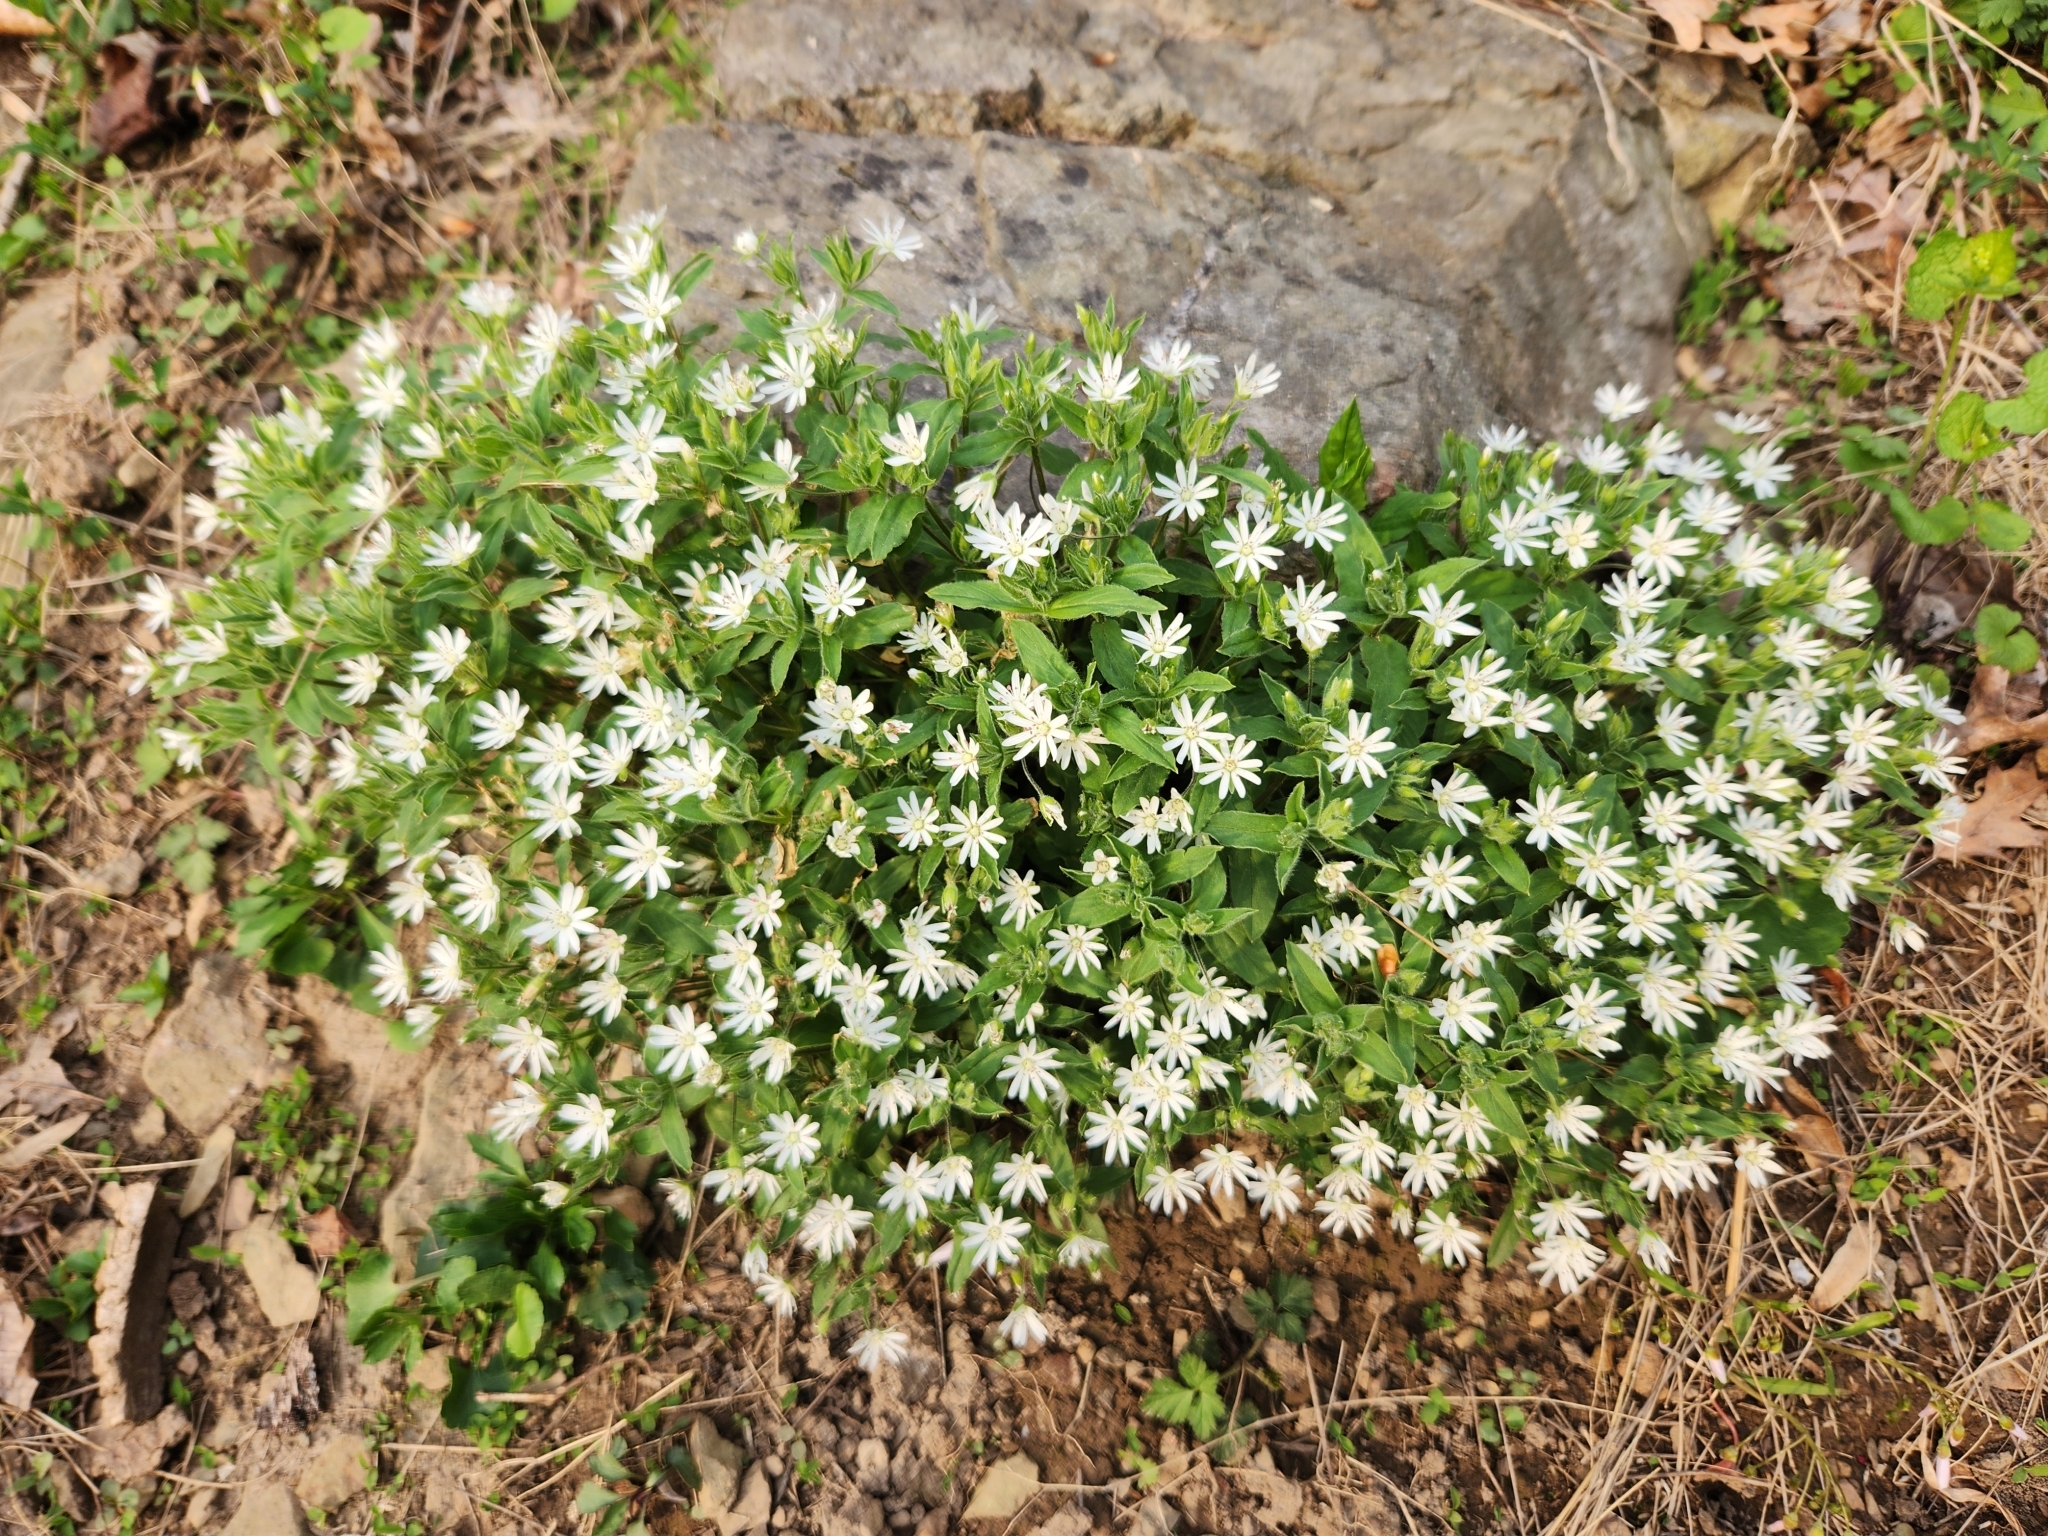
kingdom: Plantae
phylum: Tracheophyta
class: Magnoliopsida
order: Caryophyllales
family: Caryophyllaceae
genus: Stellaria
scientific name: Stellaria pubera
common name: Star chickweed
